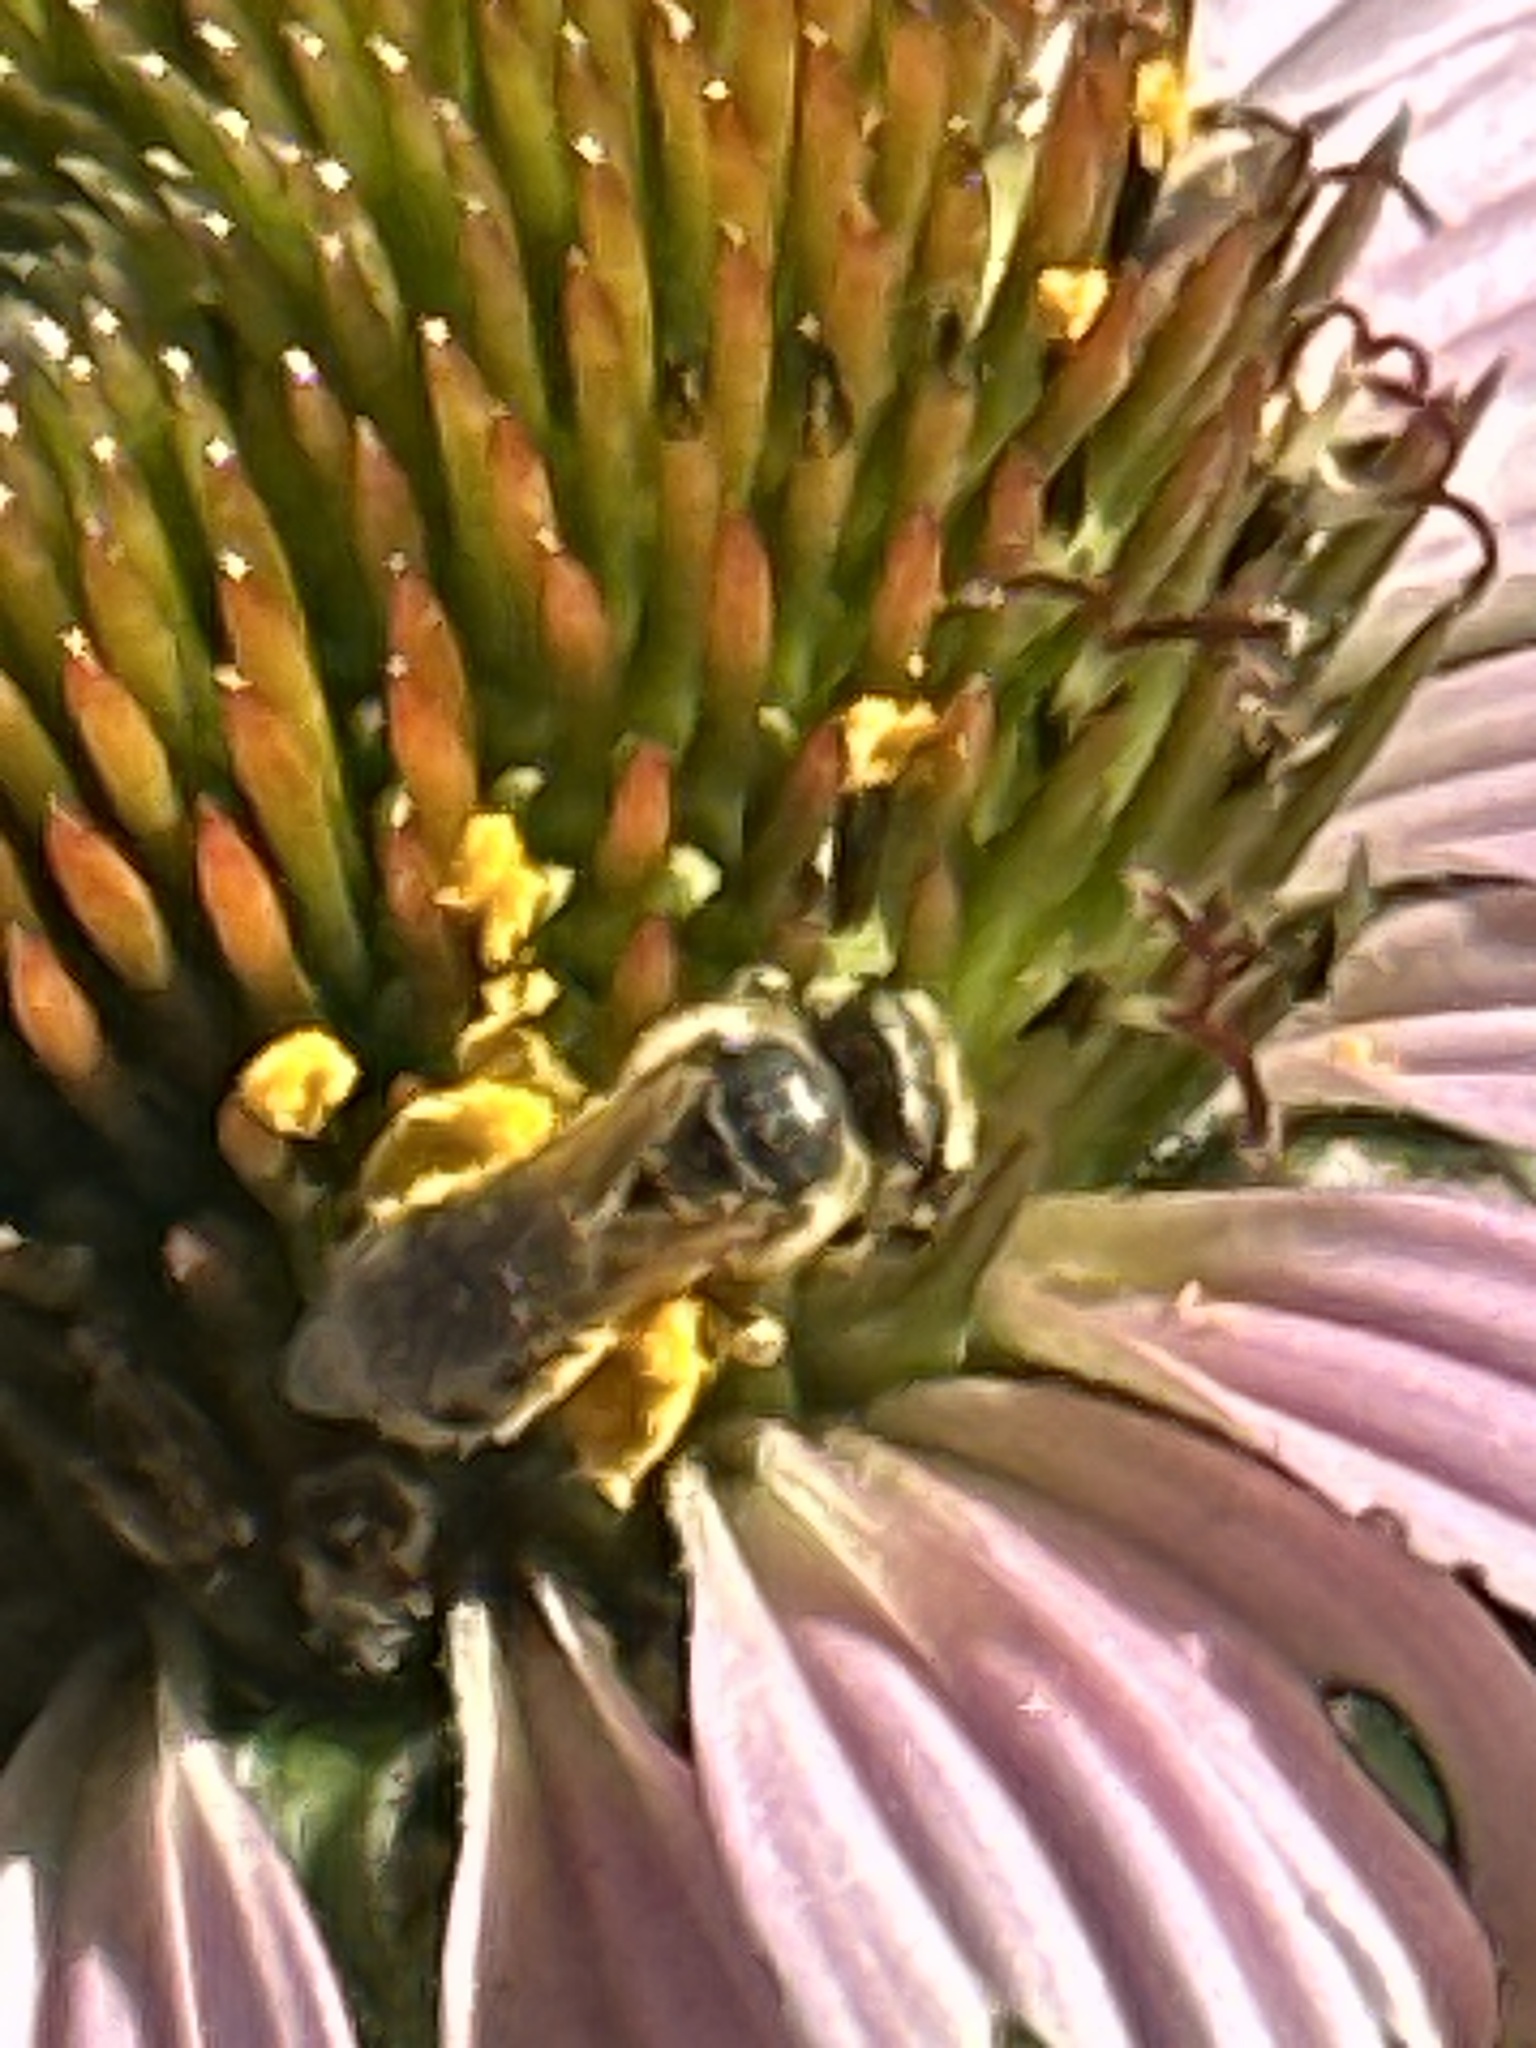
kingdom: Animalia
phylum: Arthropoda
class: Insecta
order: Hymenoptera
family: Halictidae
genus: Halictus
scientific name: Halictus ligatus
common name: Ligated furrow bee
